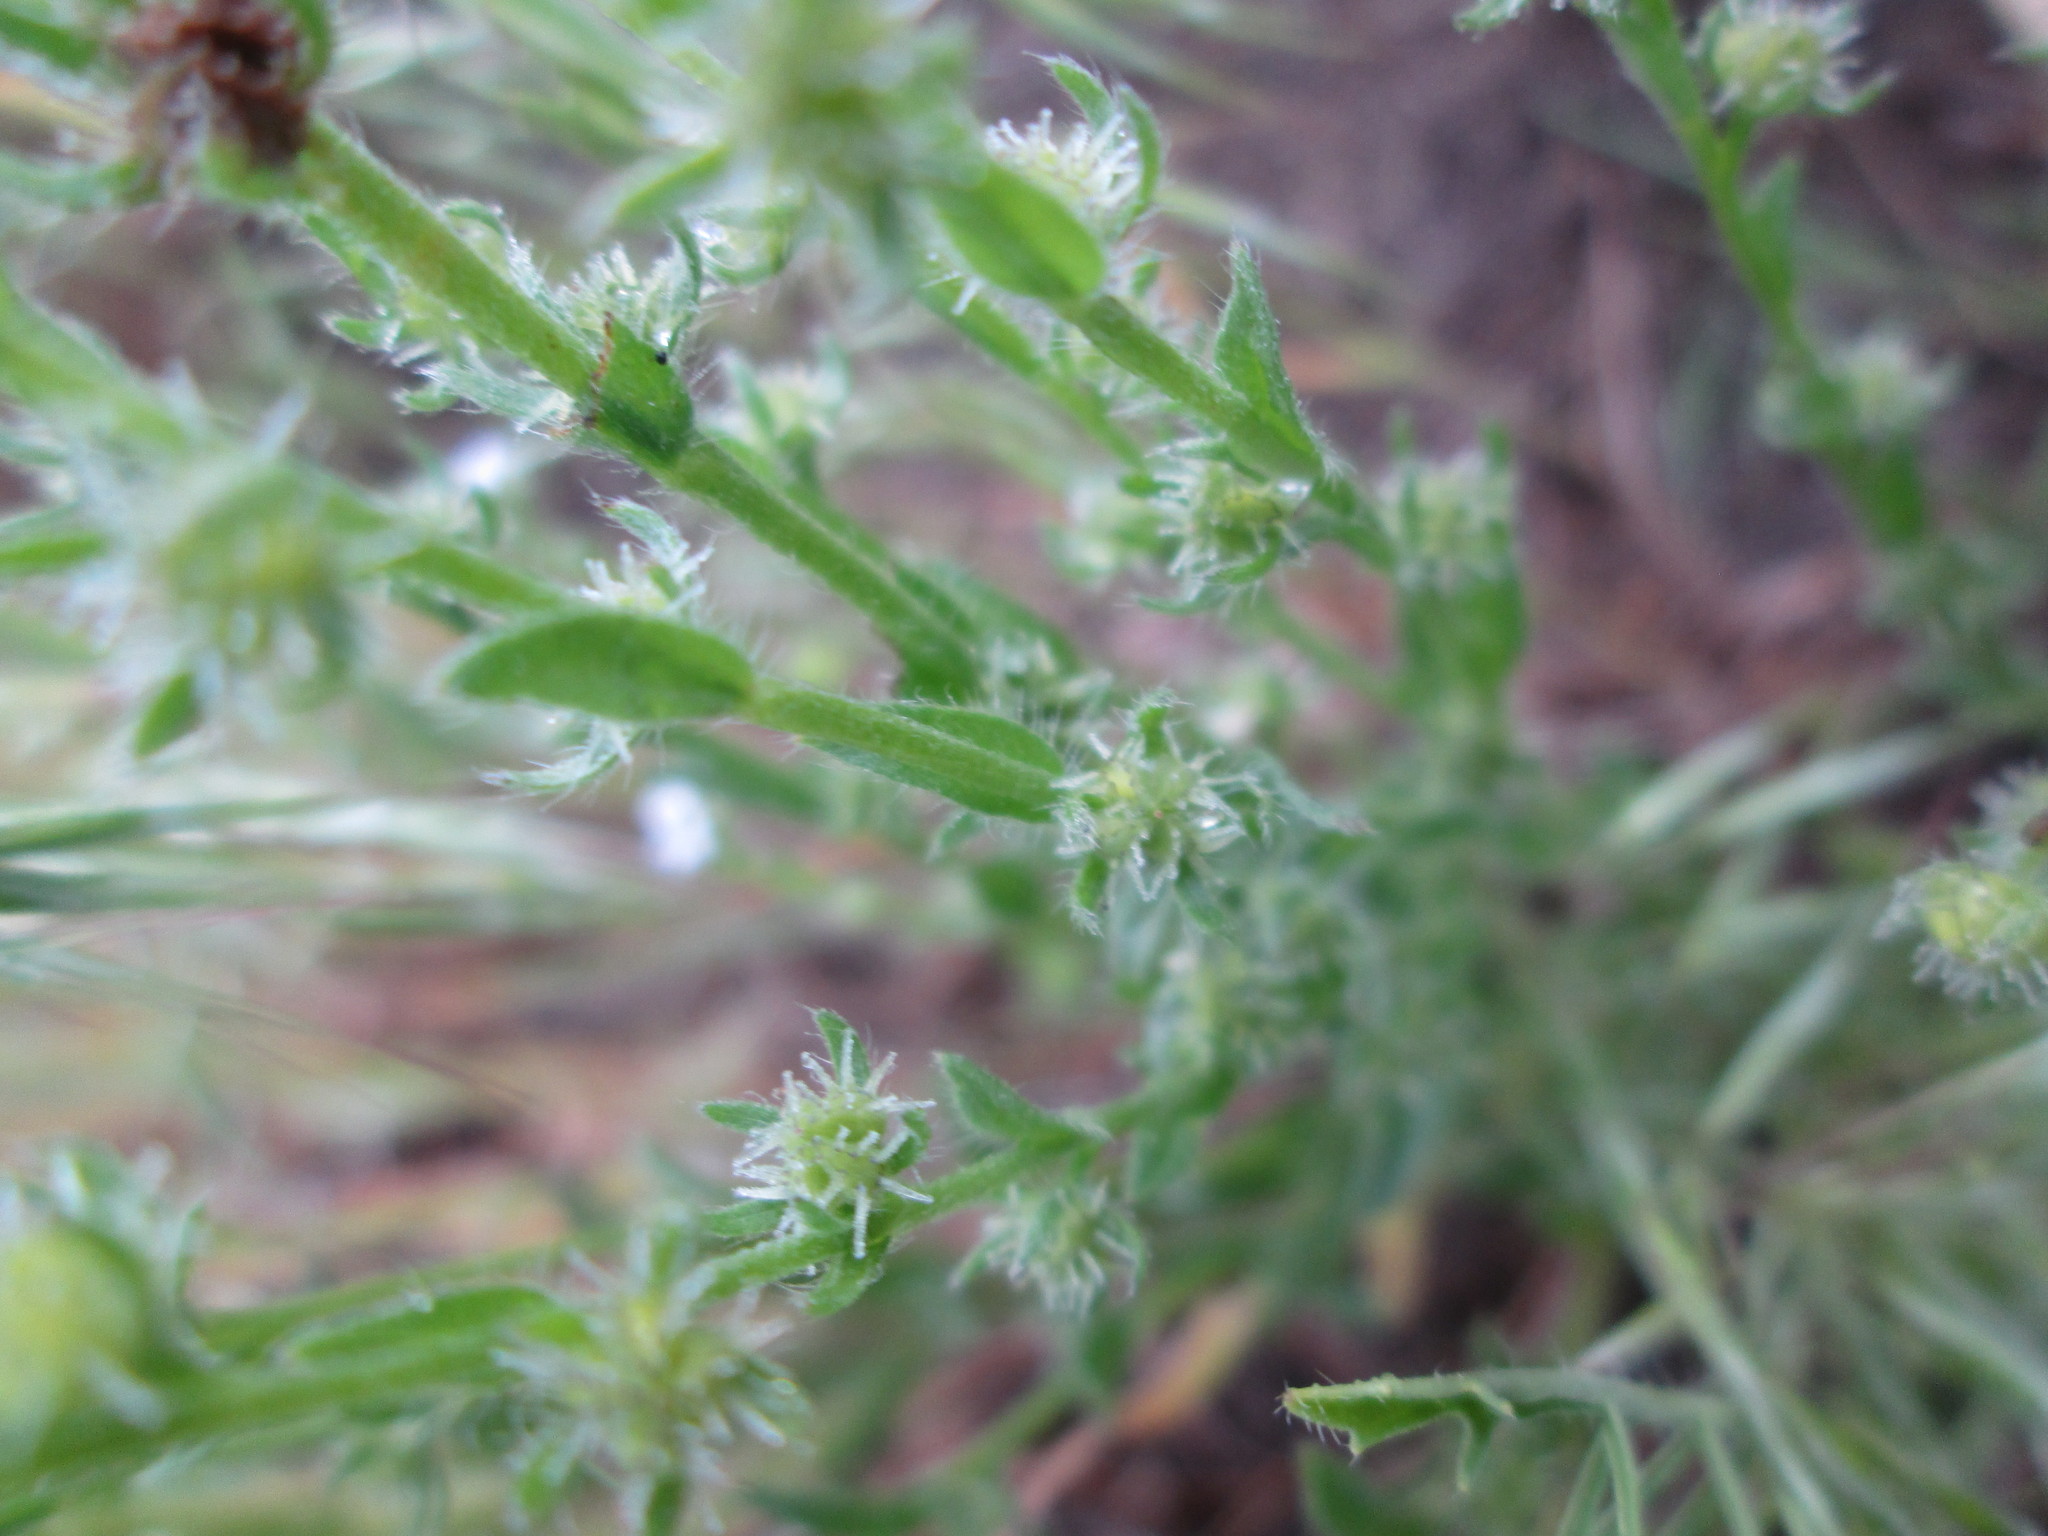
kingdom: Plantae
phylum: Tracheophyta
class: Magnoliopsida
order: Boraginales
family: Boraginaceae
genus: Lappula
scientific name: Lappula redowskii
